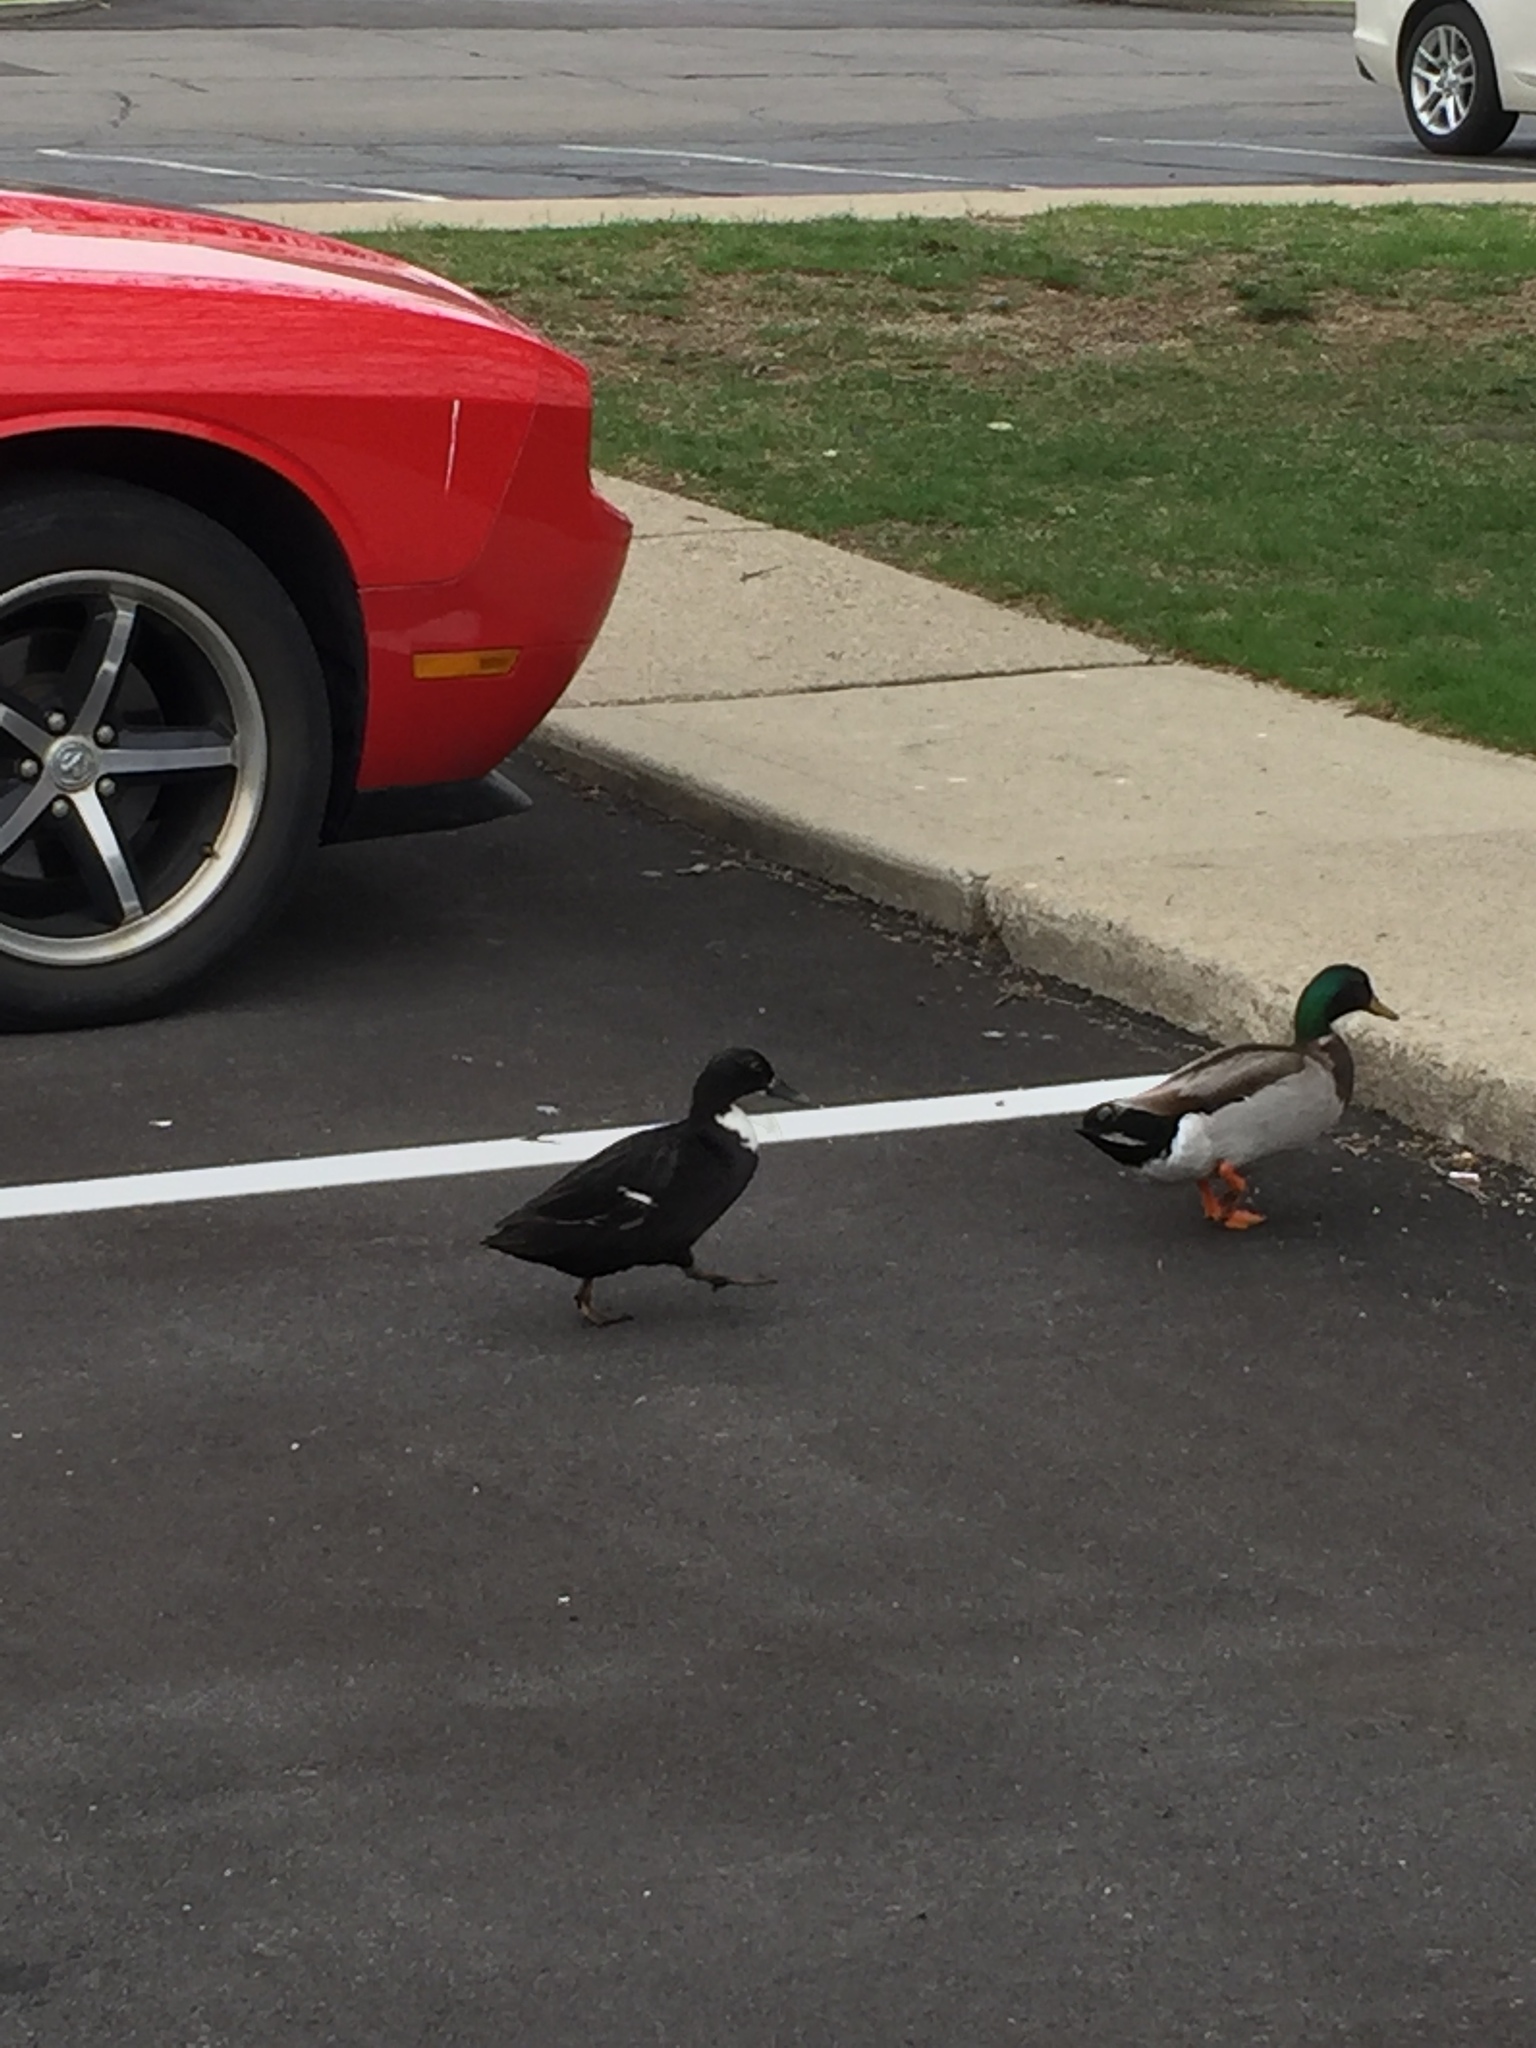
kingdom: Animalia
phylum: Chordata
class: Aves
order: Anseriformes
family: Anatidae
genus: Anas
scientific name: Anas platyrhynchos
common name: Mallard
